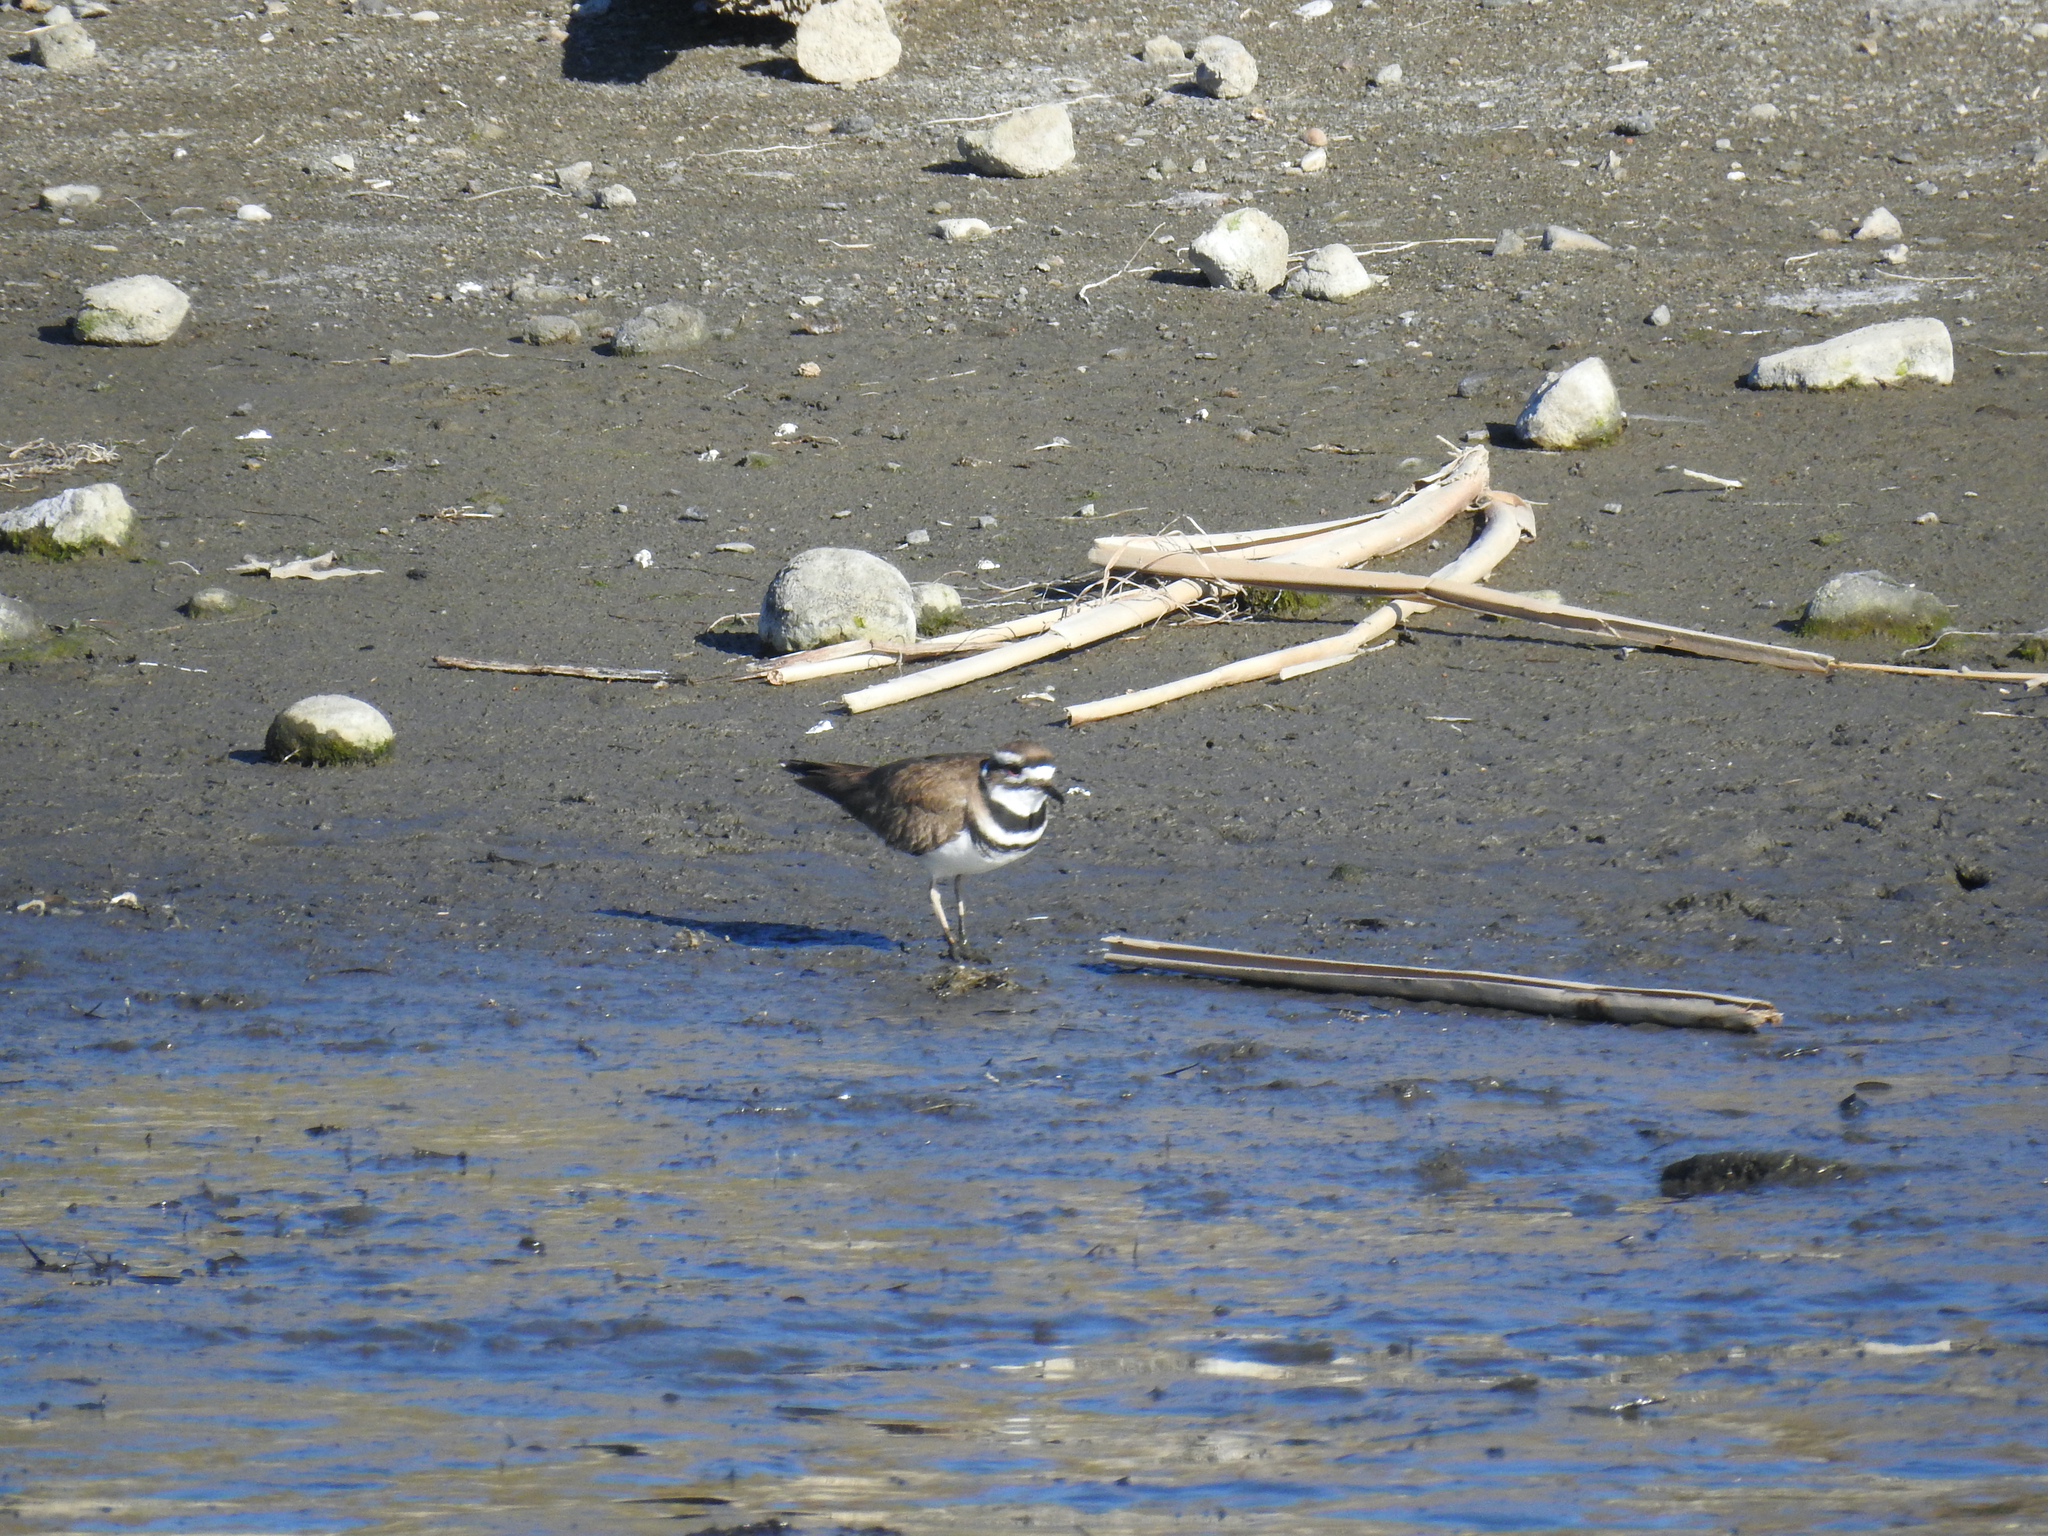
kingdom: Animalia
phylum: Chordata
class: Aves
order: Charadriiformes
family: Charadriidae
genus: Charadrius
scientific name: Charadrius vociferus
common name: Killdeer
